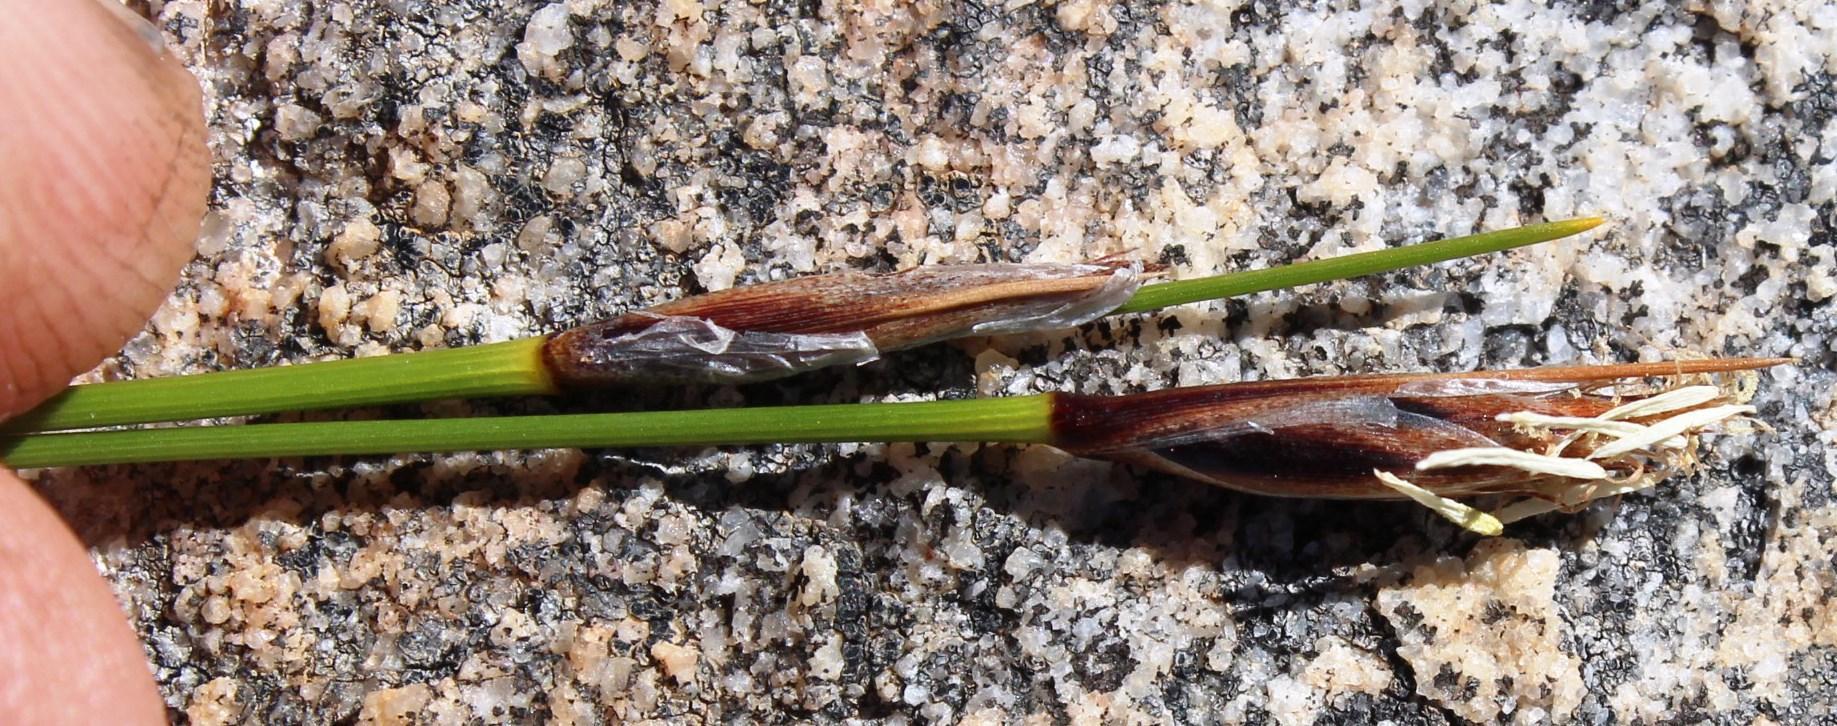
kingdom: Plantae
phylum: Tracheophyta
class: Liliopsida
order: Poales
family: Cyperaceae
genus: Ficinia
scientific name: Ficinia deusta
